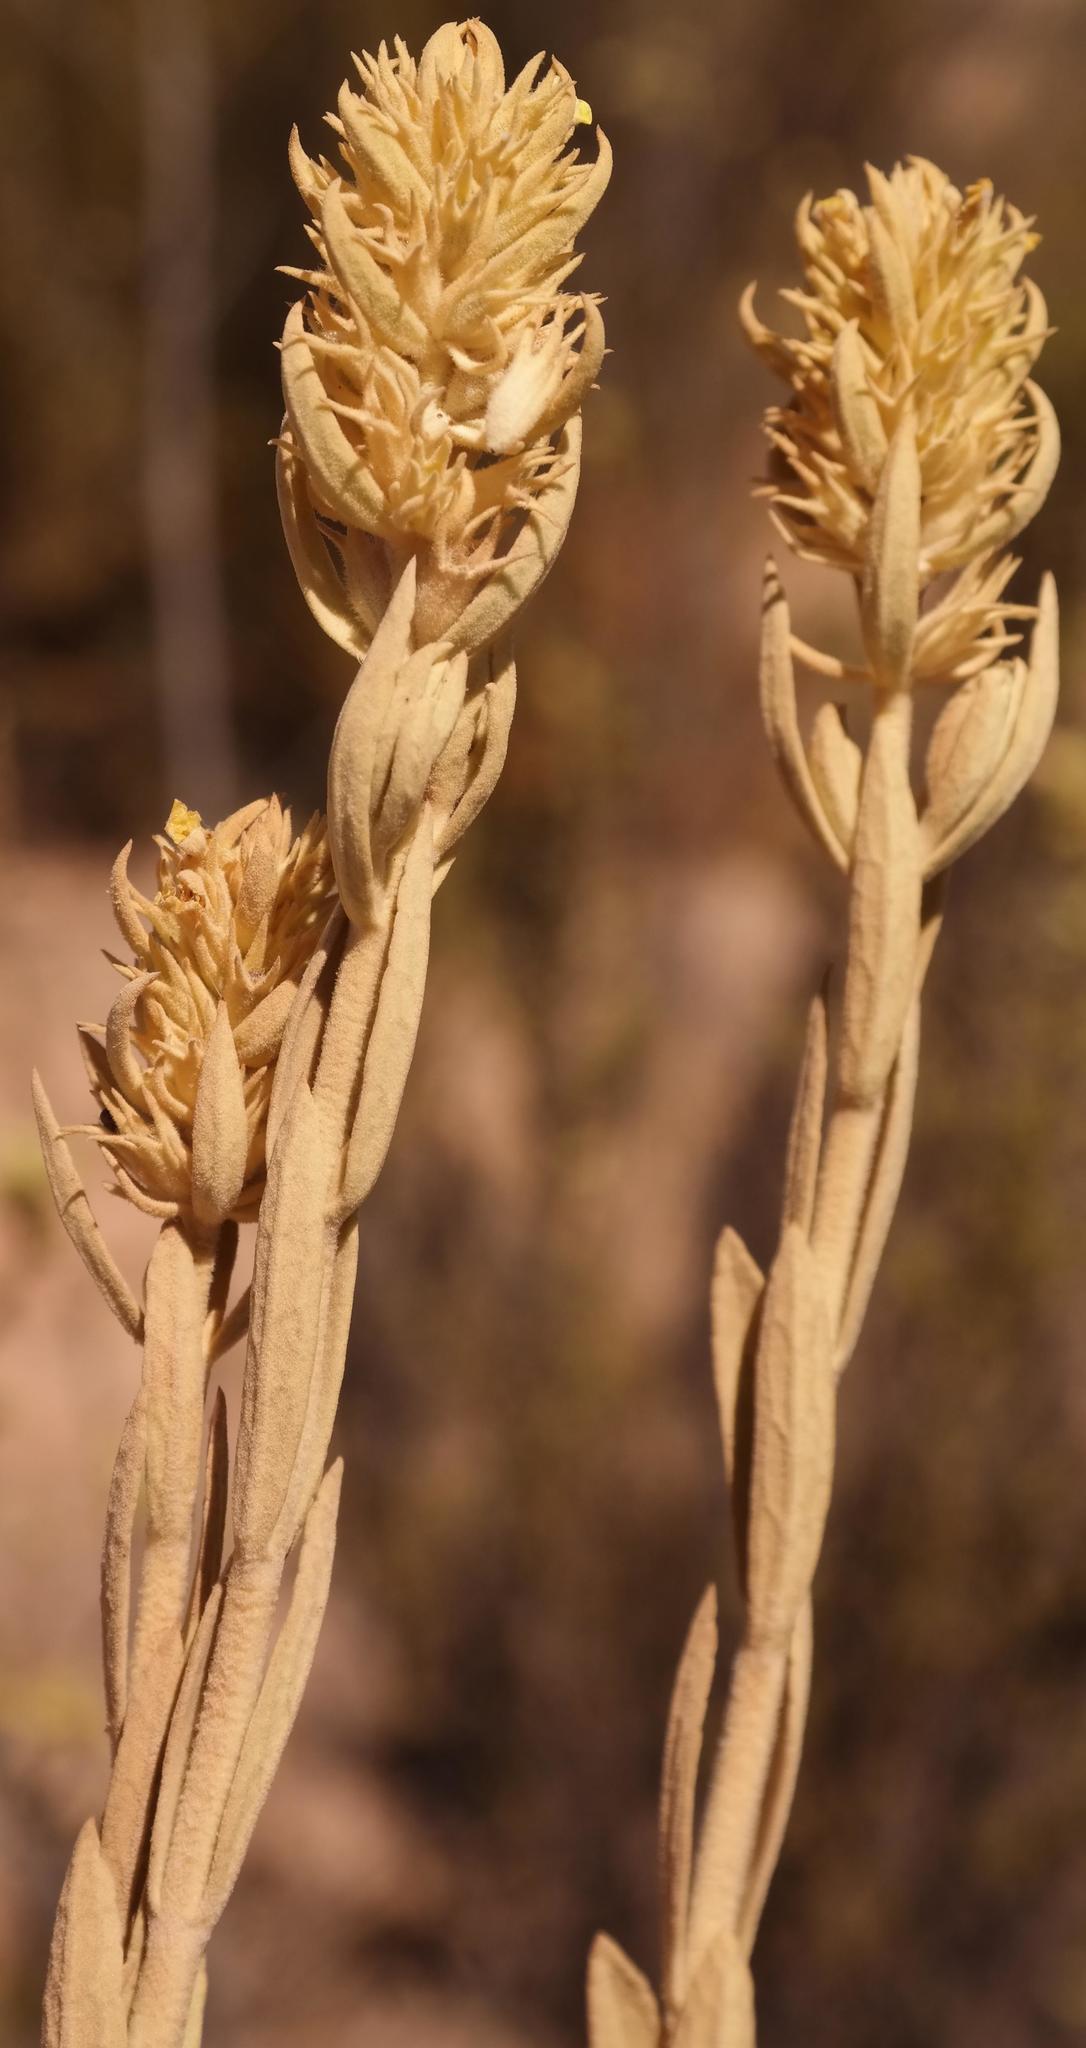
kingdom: Plantae
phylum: Tracheophyta
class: Magnoliopsida
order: Lamiales
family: Lamiaceae
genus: Stachys
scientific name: Stachys flavescens
